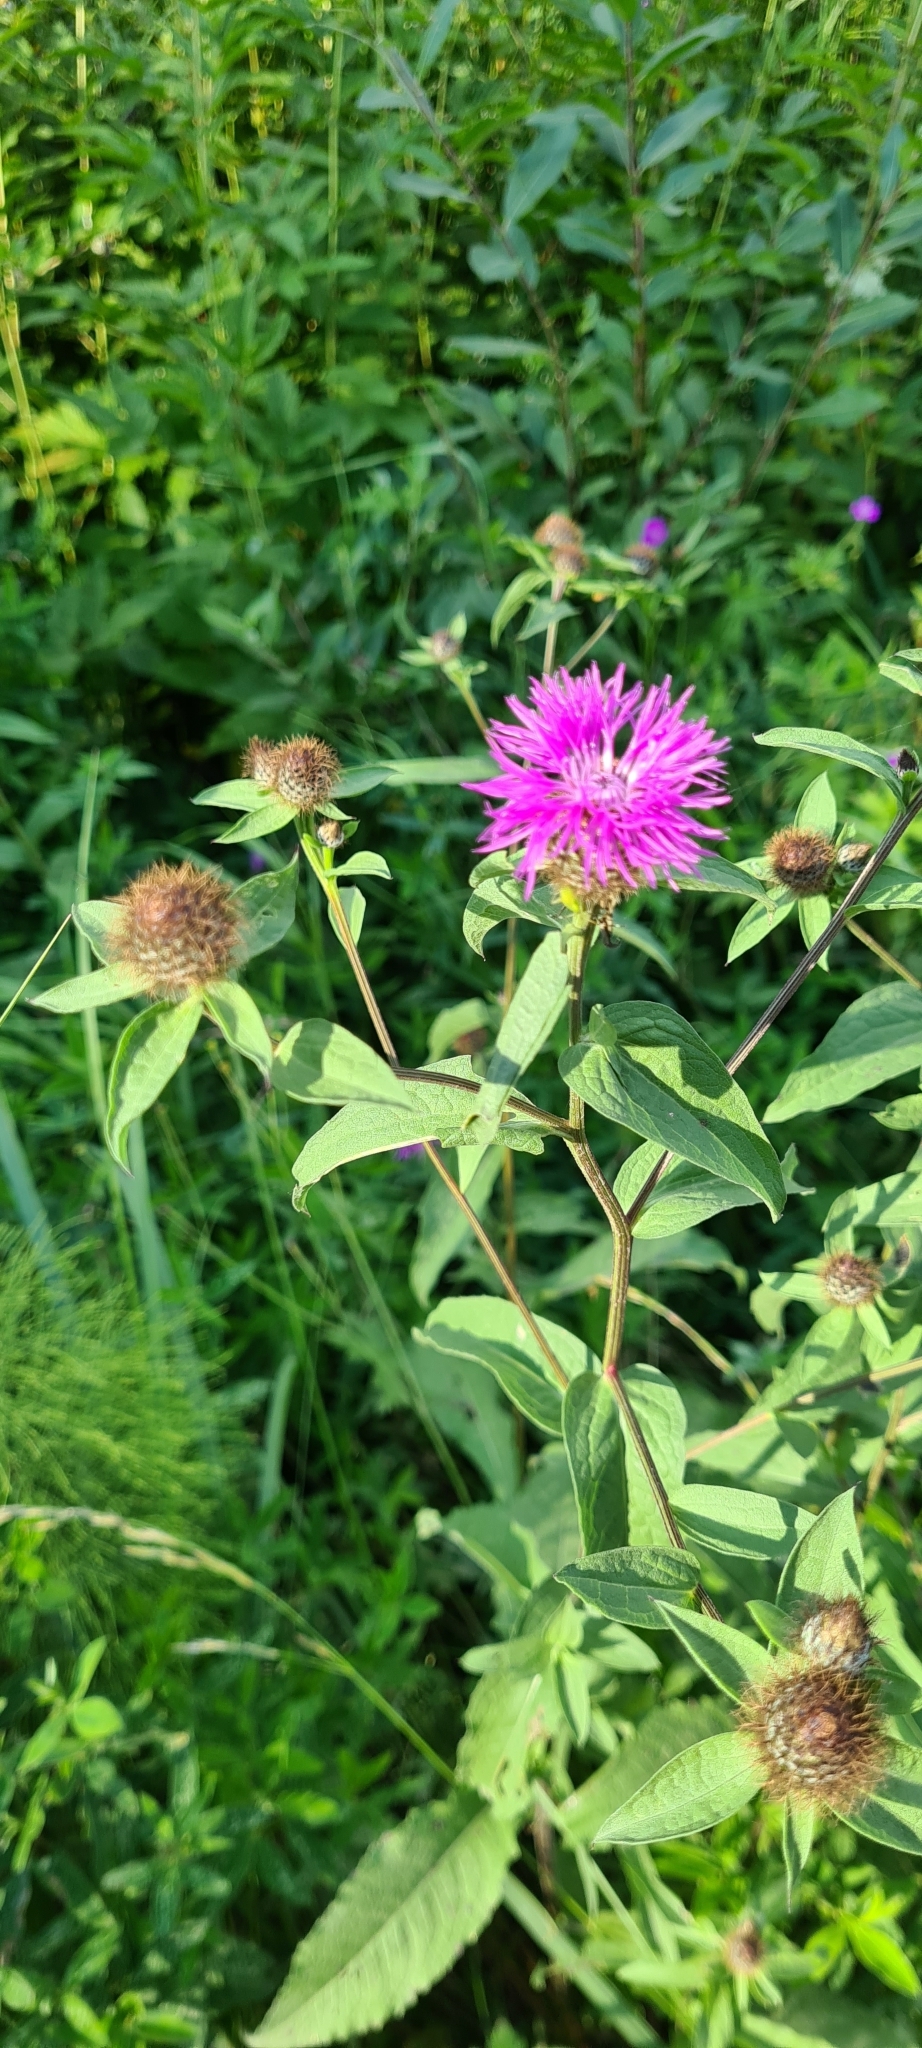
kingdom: Plantae
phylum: Tracheophyta
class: Magnoliopsida
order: Asterales
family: Asteraceae
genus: Centaurea
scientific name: Centaurea phrygia
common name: Wig knapweed
